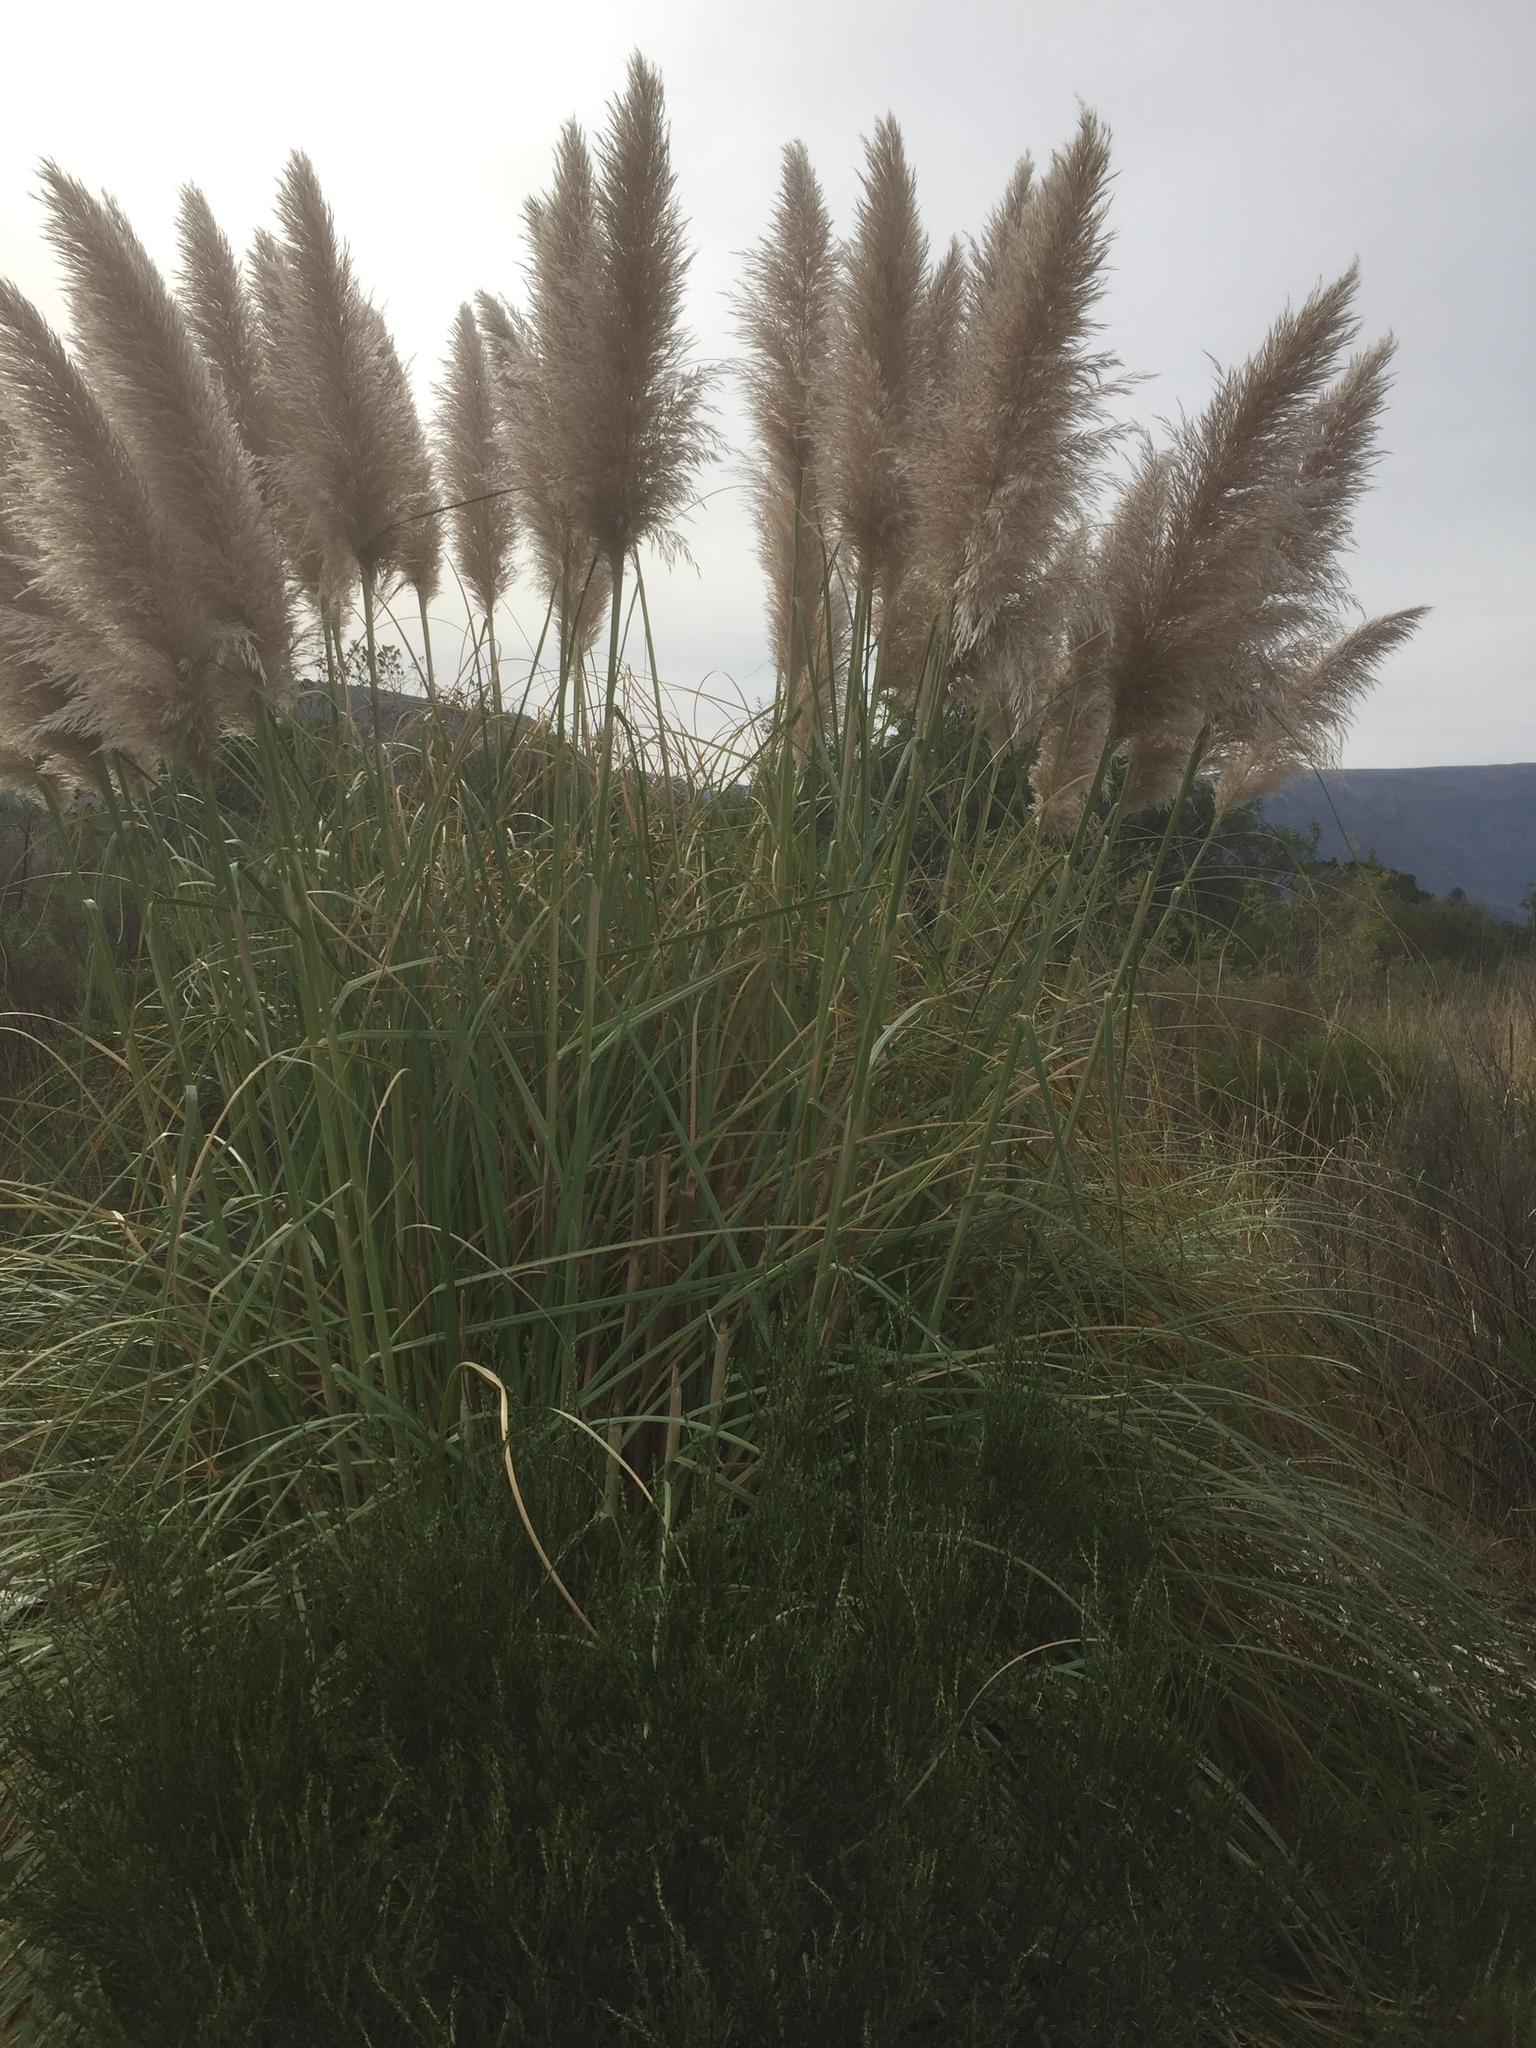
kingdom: Plantae
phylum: Tracheophyta
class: Liliopsida
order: Poales
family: Poaceae
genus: Cortaderia
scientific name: Cortaderia selloana
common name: Uruguayan pampas grass
